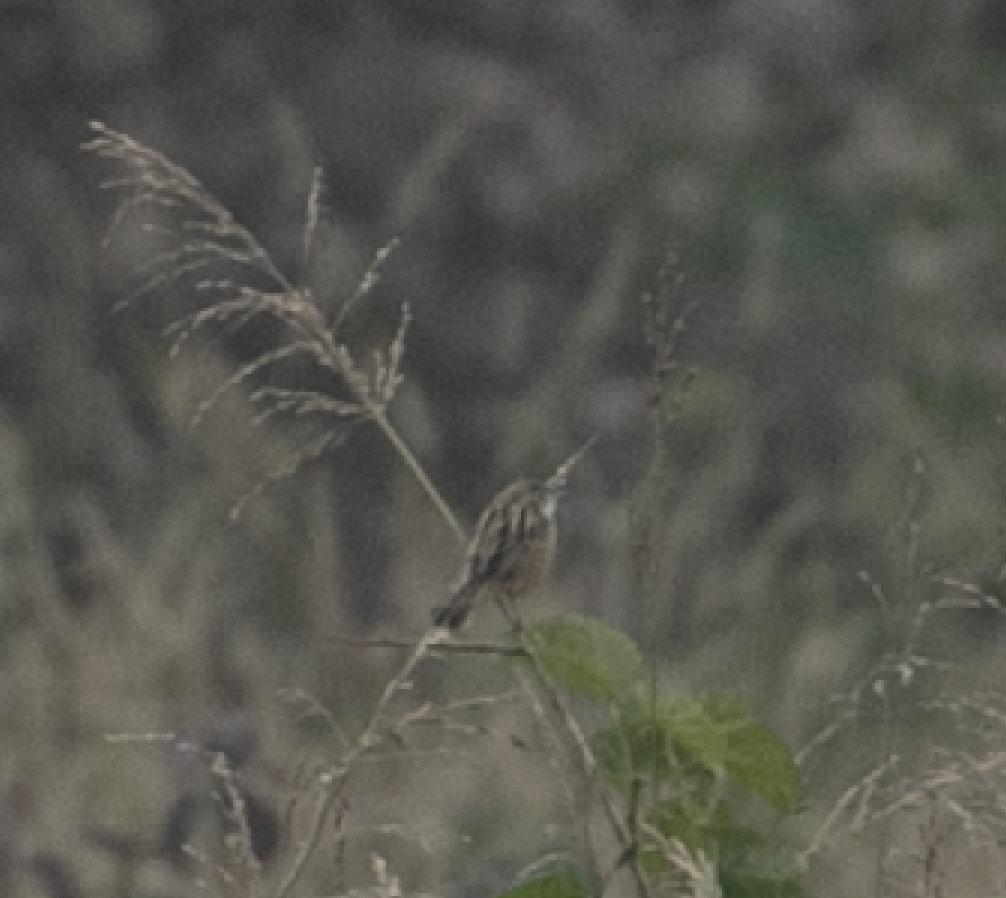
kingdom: Animalia
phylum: Chordata
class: Aves
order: Passeriformes
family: Cisticolidae
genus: Cisticola
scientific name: Cisticola juncidis
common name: Zitting cisticola
